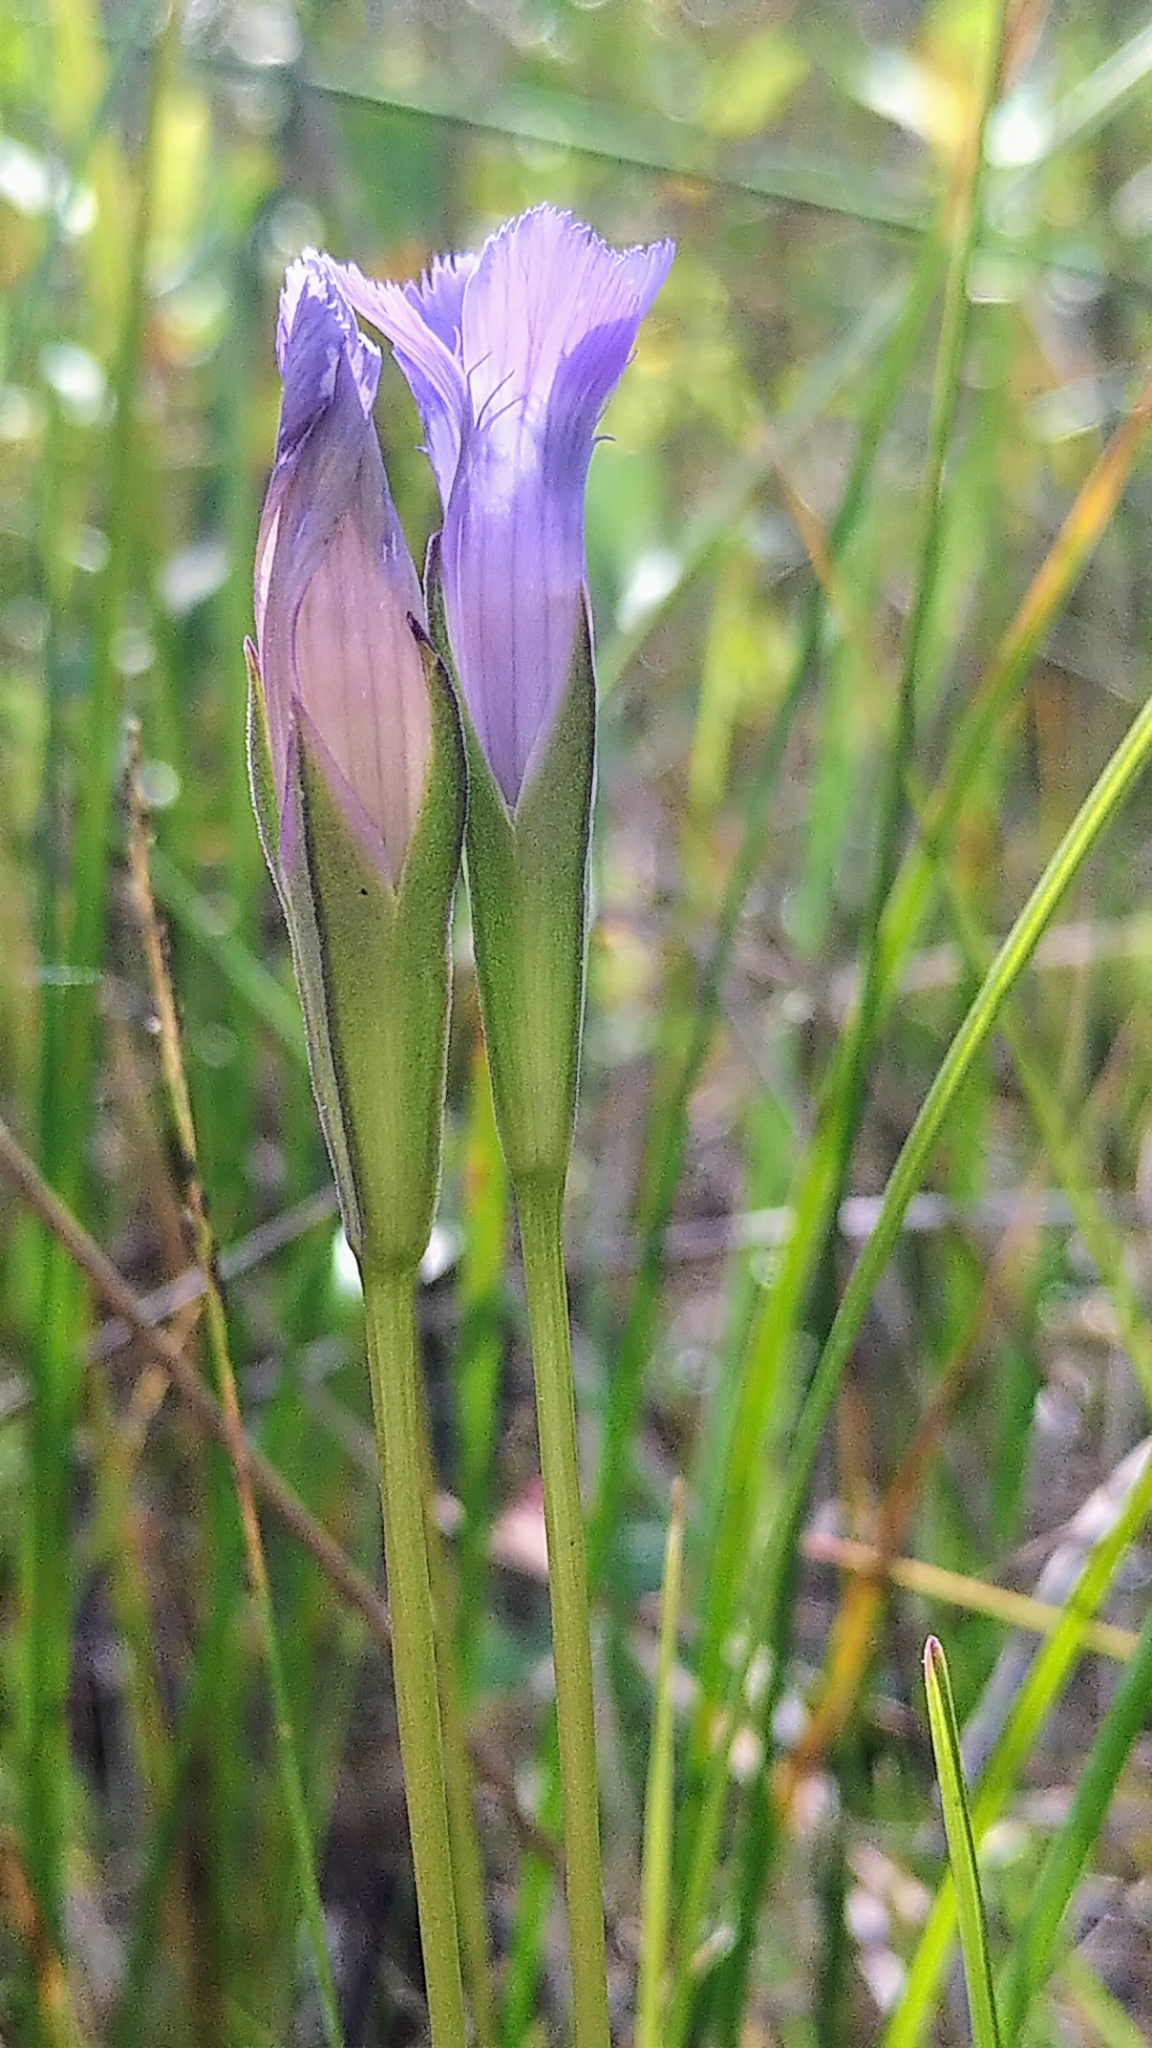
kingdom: Plantae
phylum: Tracheophyta
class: Magnoliopsida
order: Gentianales
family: Gentianaceae
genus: Gentianopsis
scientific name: Gentianopsis macounii
